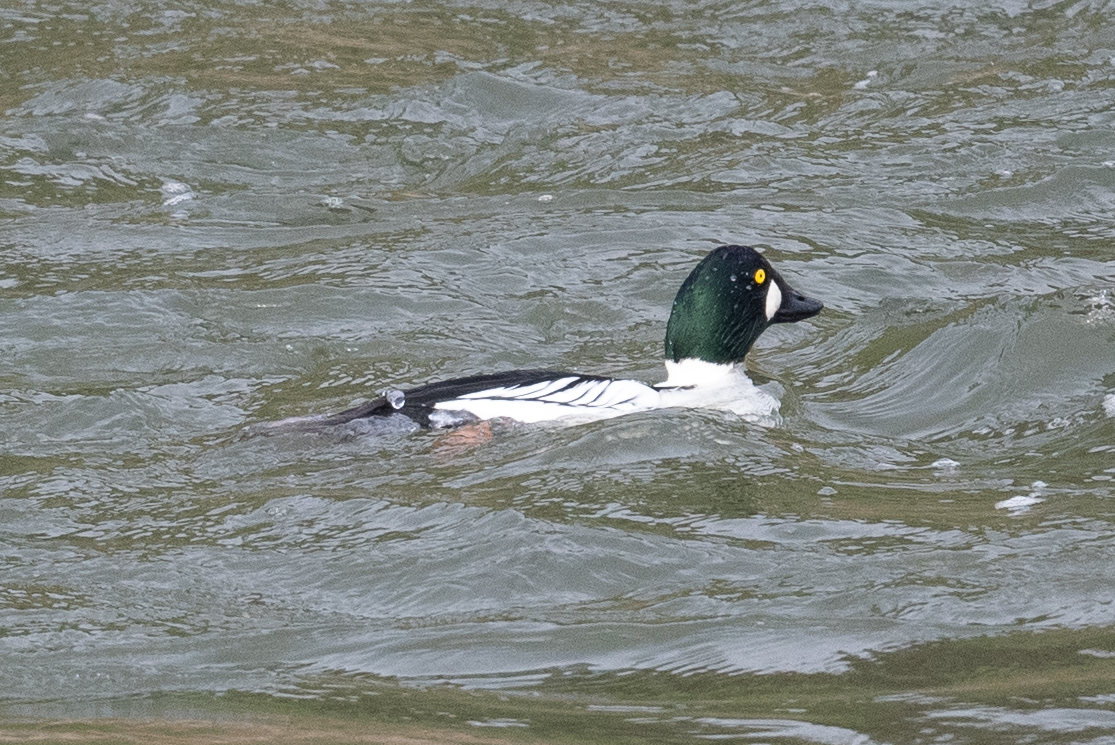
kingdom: Animalia
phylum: Chordata
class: Aves
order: Anseriformes
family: Anatidae
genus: Bucephala
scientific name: Bucephala clangula
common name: Common goldeneye
